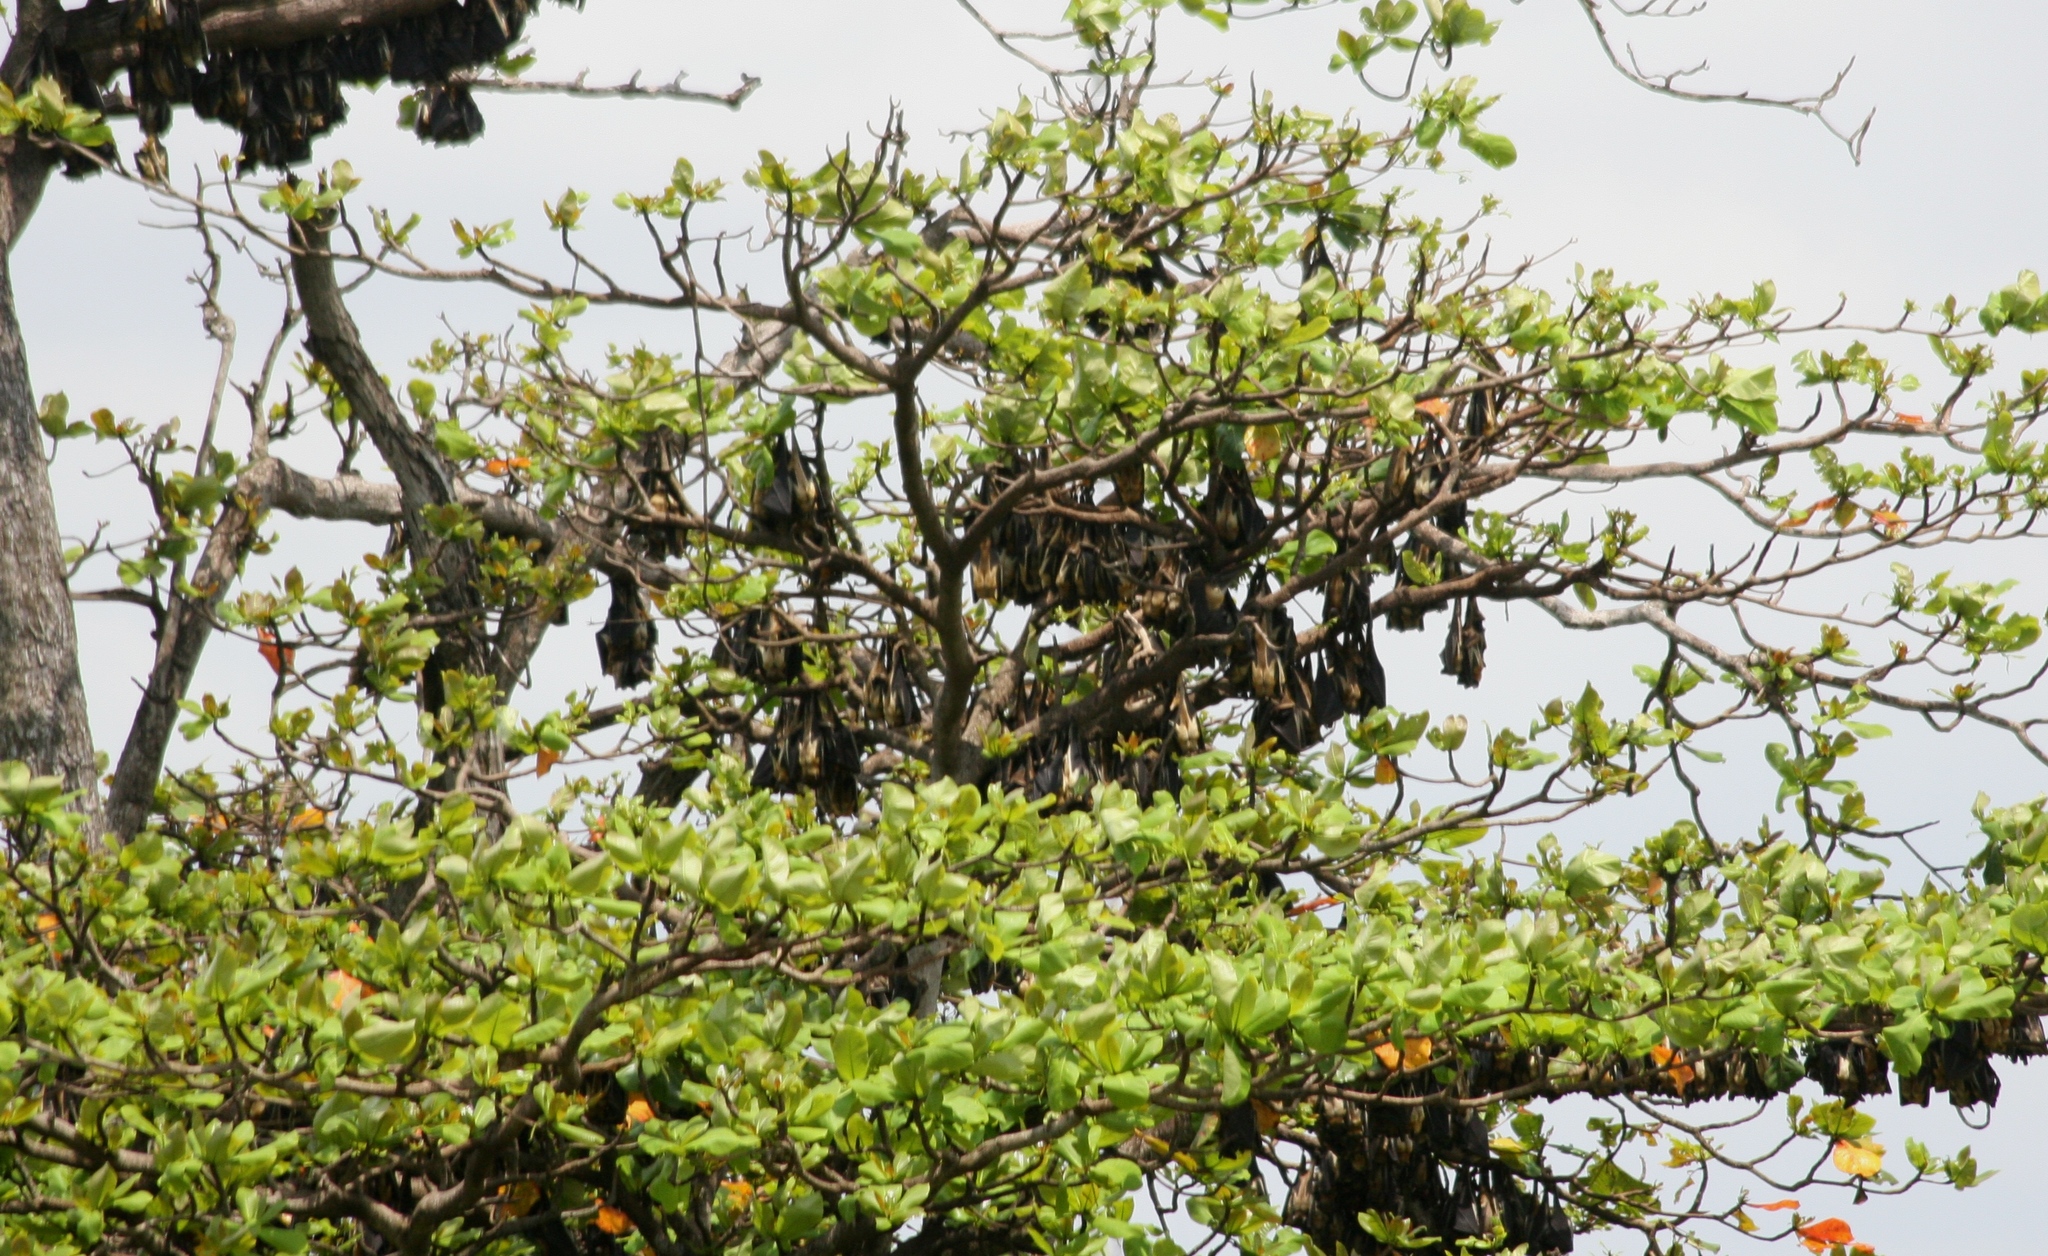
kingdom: Animalia
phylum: Chordata
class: Mammalia
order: Chiroptera
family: Pteropodidae
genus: Eidolon
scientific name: Eidolon helvum
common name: Straw-colored fruit bat
